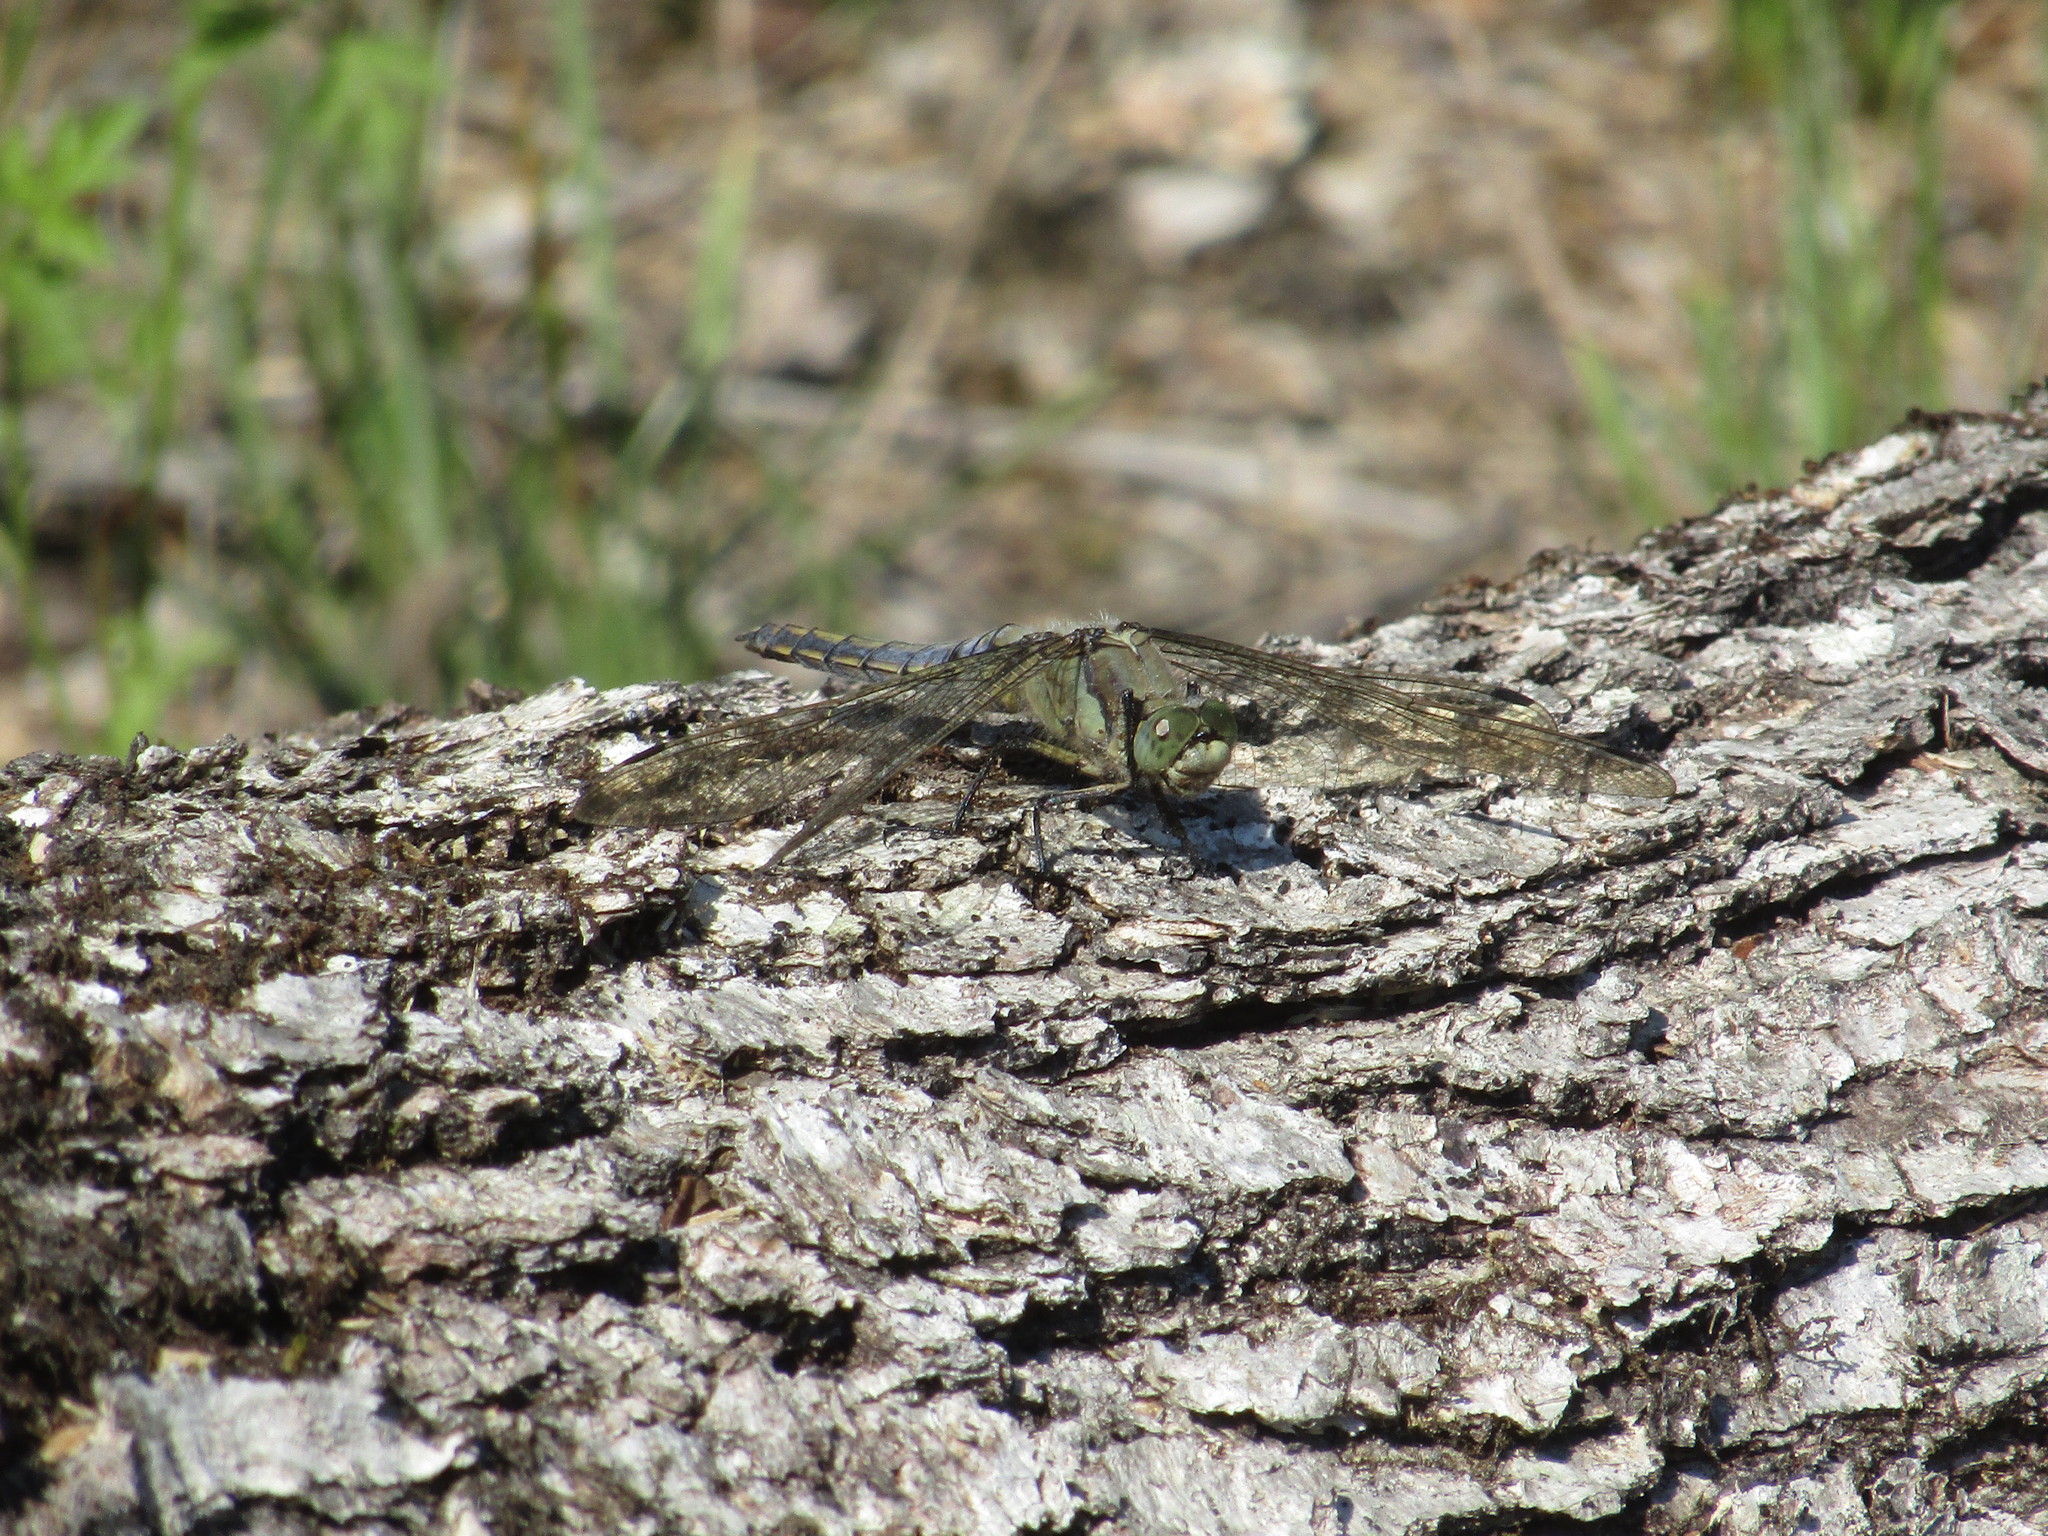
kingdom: Animalia
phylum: Arthropoda
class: Insecta
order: Odonata
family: Libellulidae
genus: Orthetrum
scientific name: Orthetrum cancellatum
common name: Black-tailed skimmer
